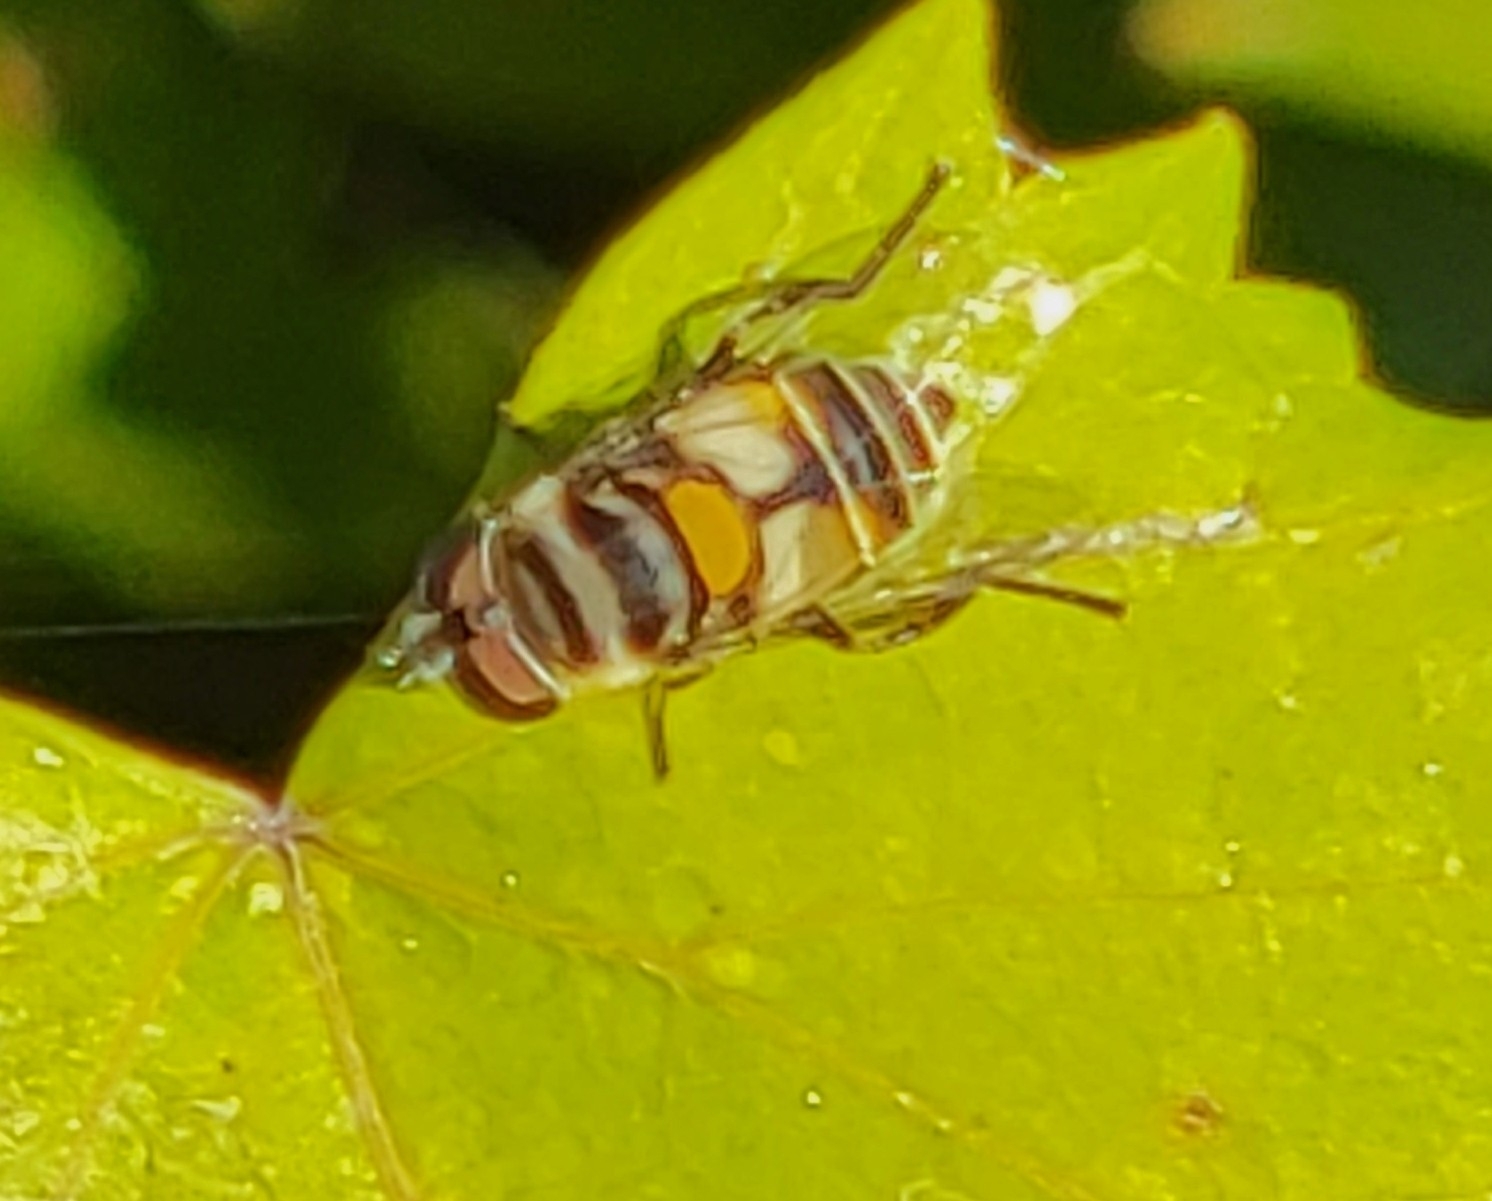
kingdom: Animalia
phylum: Arthropoda
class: Insecta
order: Diptera
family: Syrphidae
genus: Palpada
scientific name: Palpada albifrons
